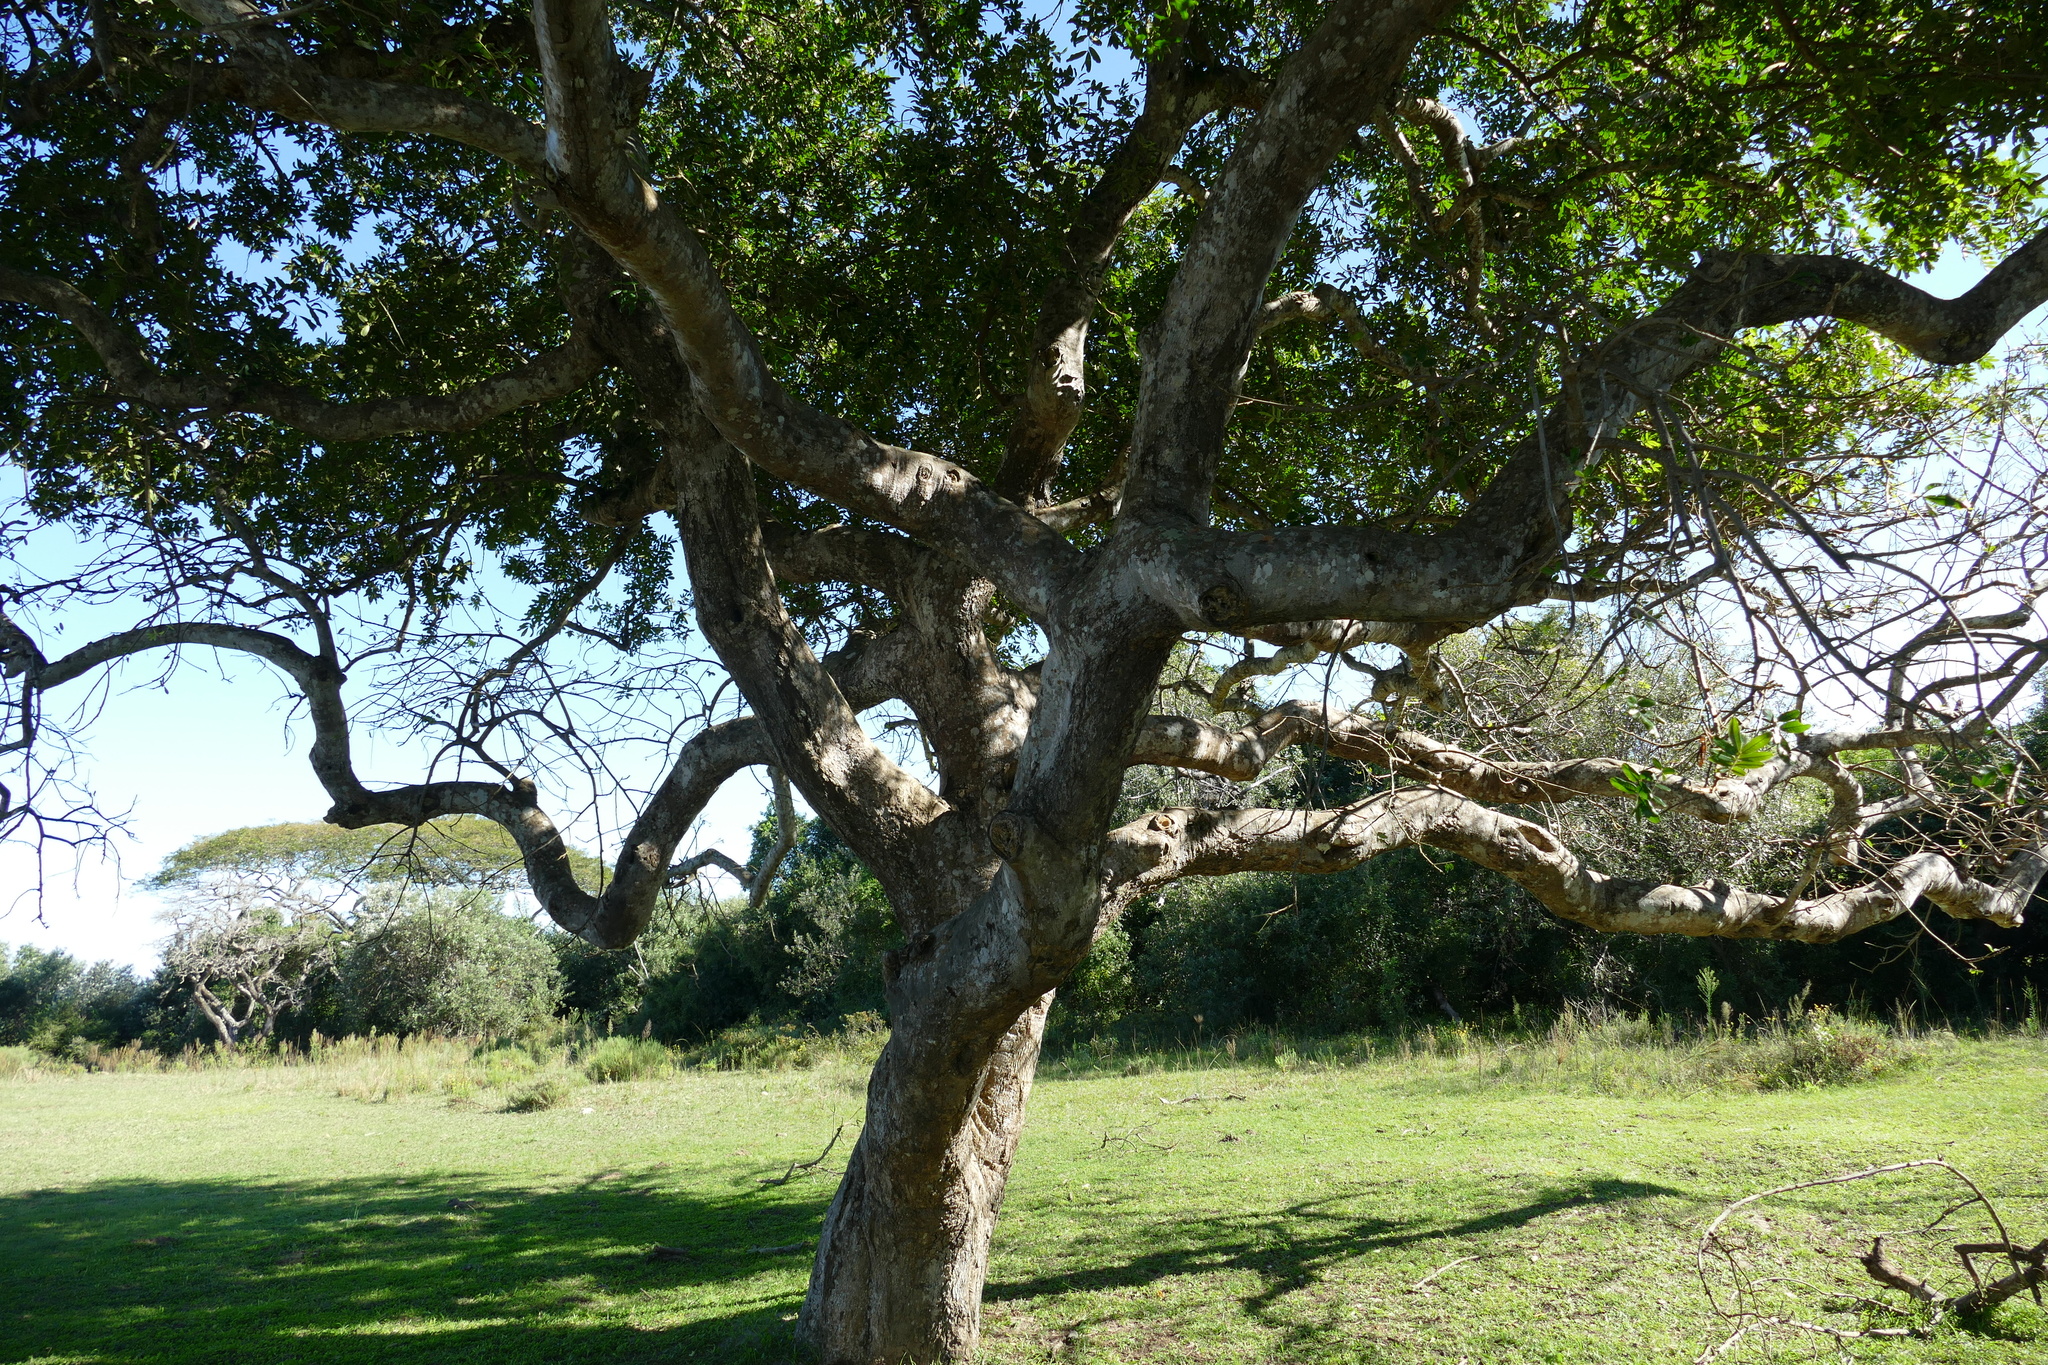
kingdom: Plantae
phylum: Tracheophyta
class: Magnoliopsida
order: Sapindales
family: Meliaceae
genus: Trichilia
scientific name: Trichilia emetica
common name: Christmas-bells
